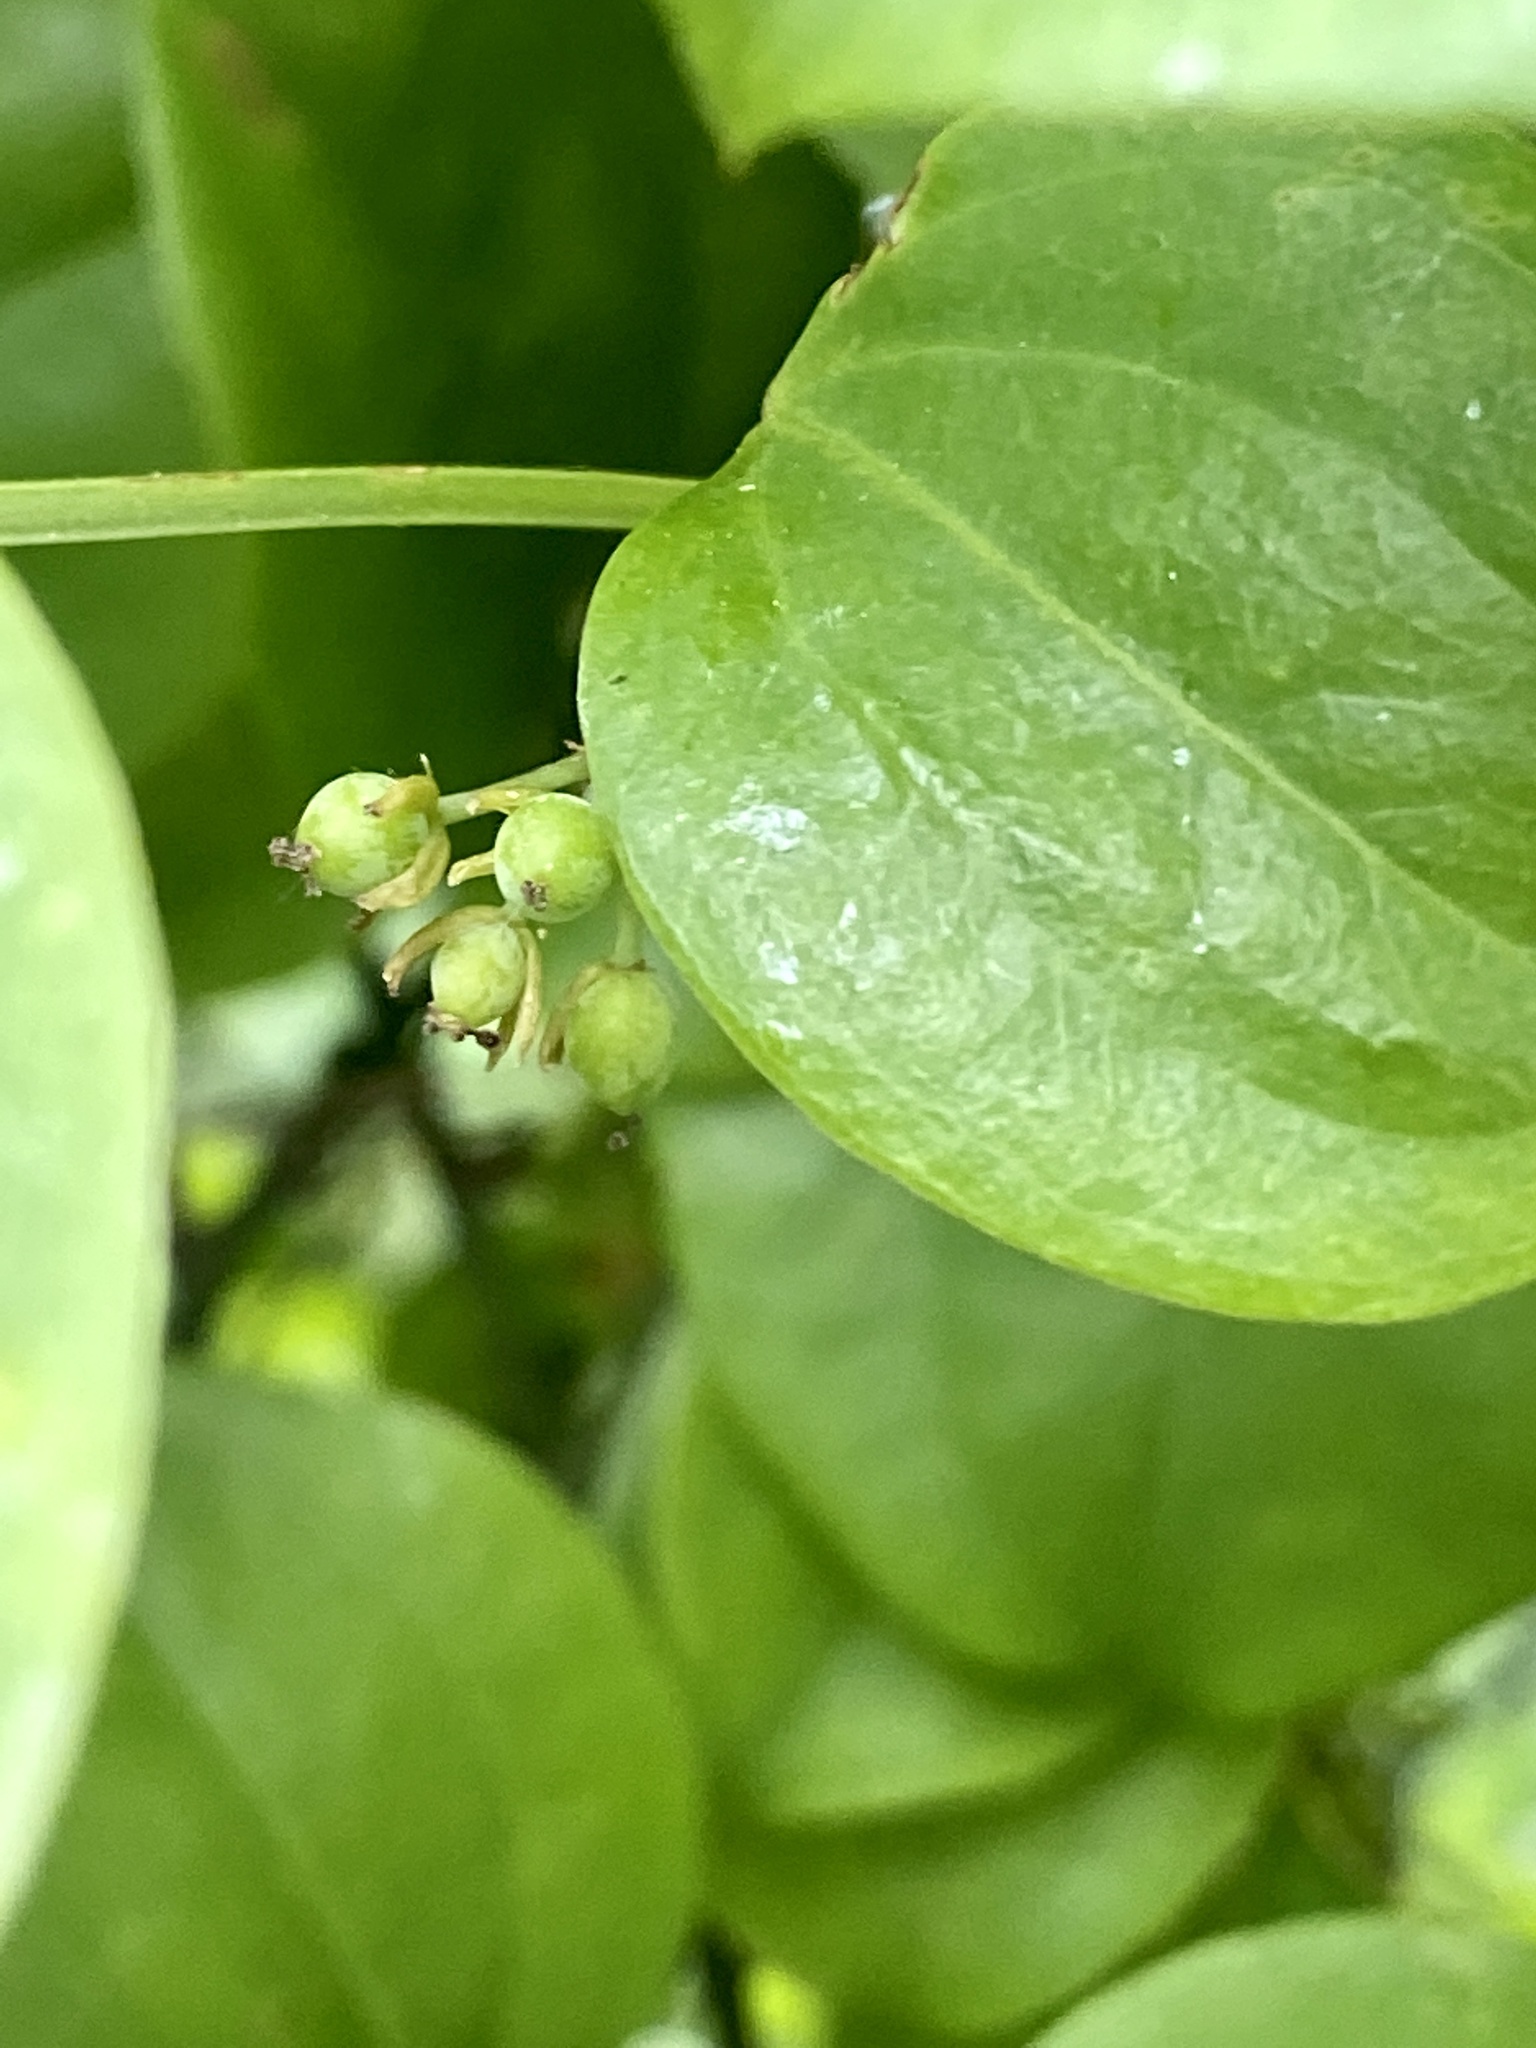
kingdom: Plantae
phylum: Tracheophyta
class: Liliopsida
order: Liliales
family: Smilacaceae
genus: Smilax
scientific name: Smilax rotundifolia
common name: Bullbriar
